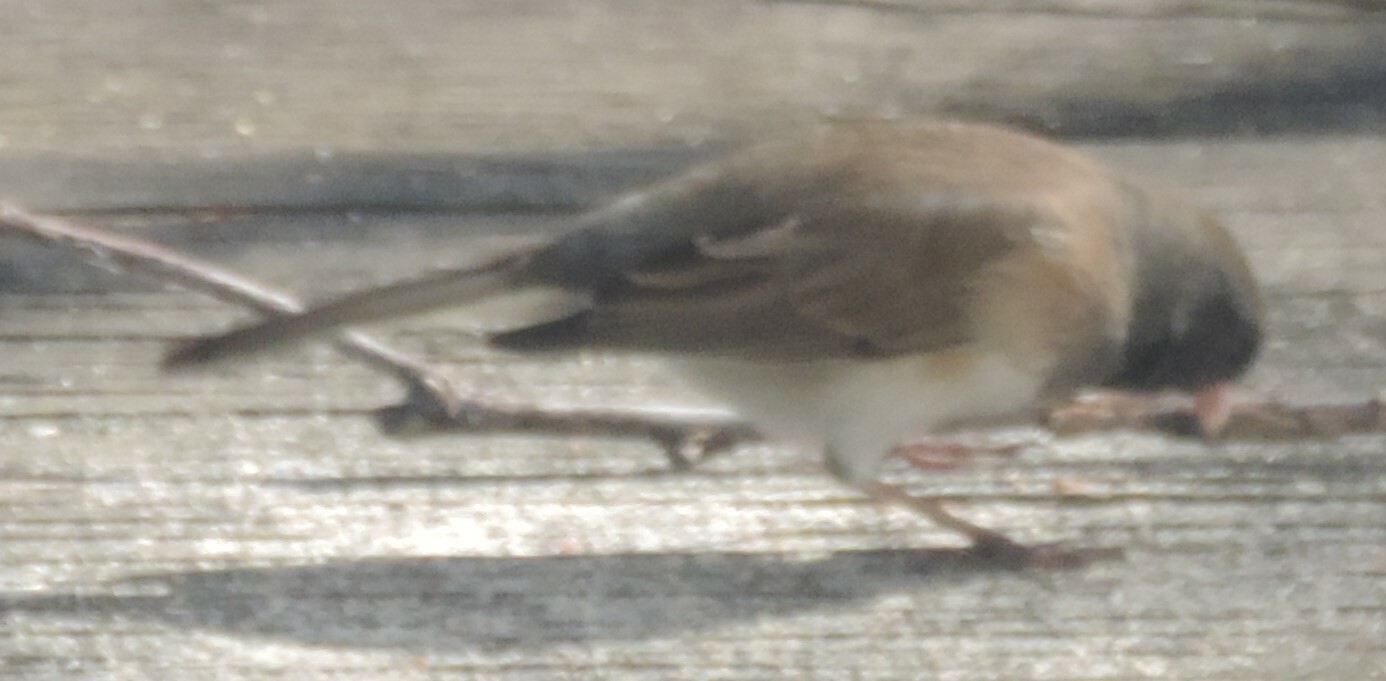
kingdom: Animalia
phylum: Chordata
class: Aves
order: Passeriformes
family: Passerellidae
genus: Junco
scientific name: Junco hyemalis
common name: Dark-eyed junco
